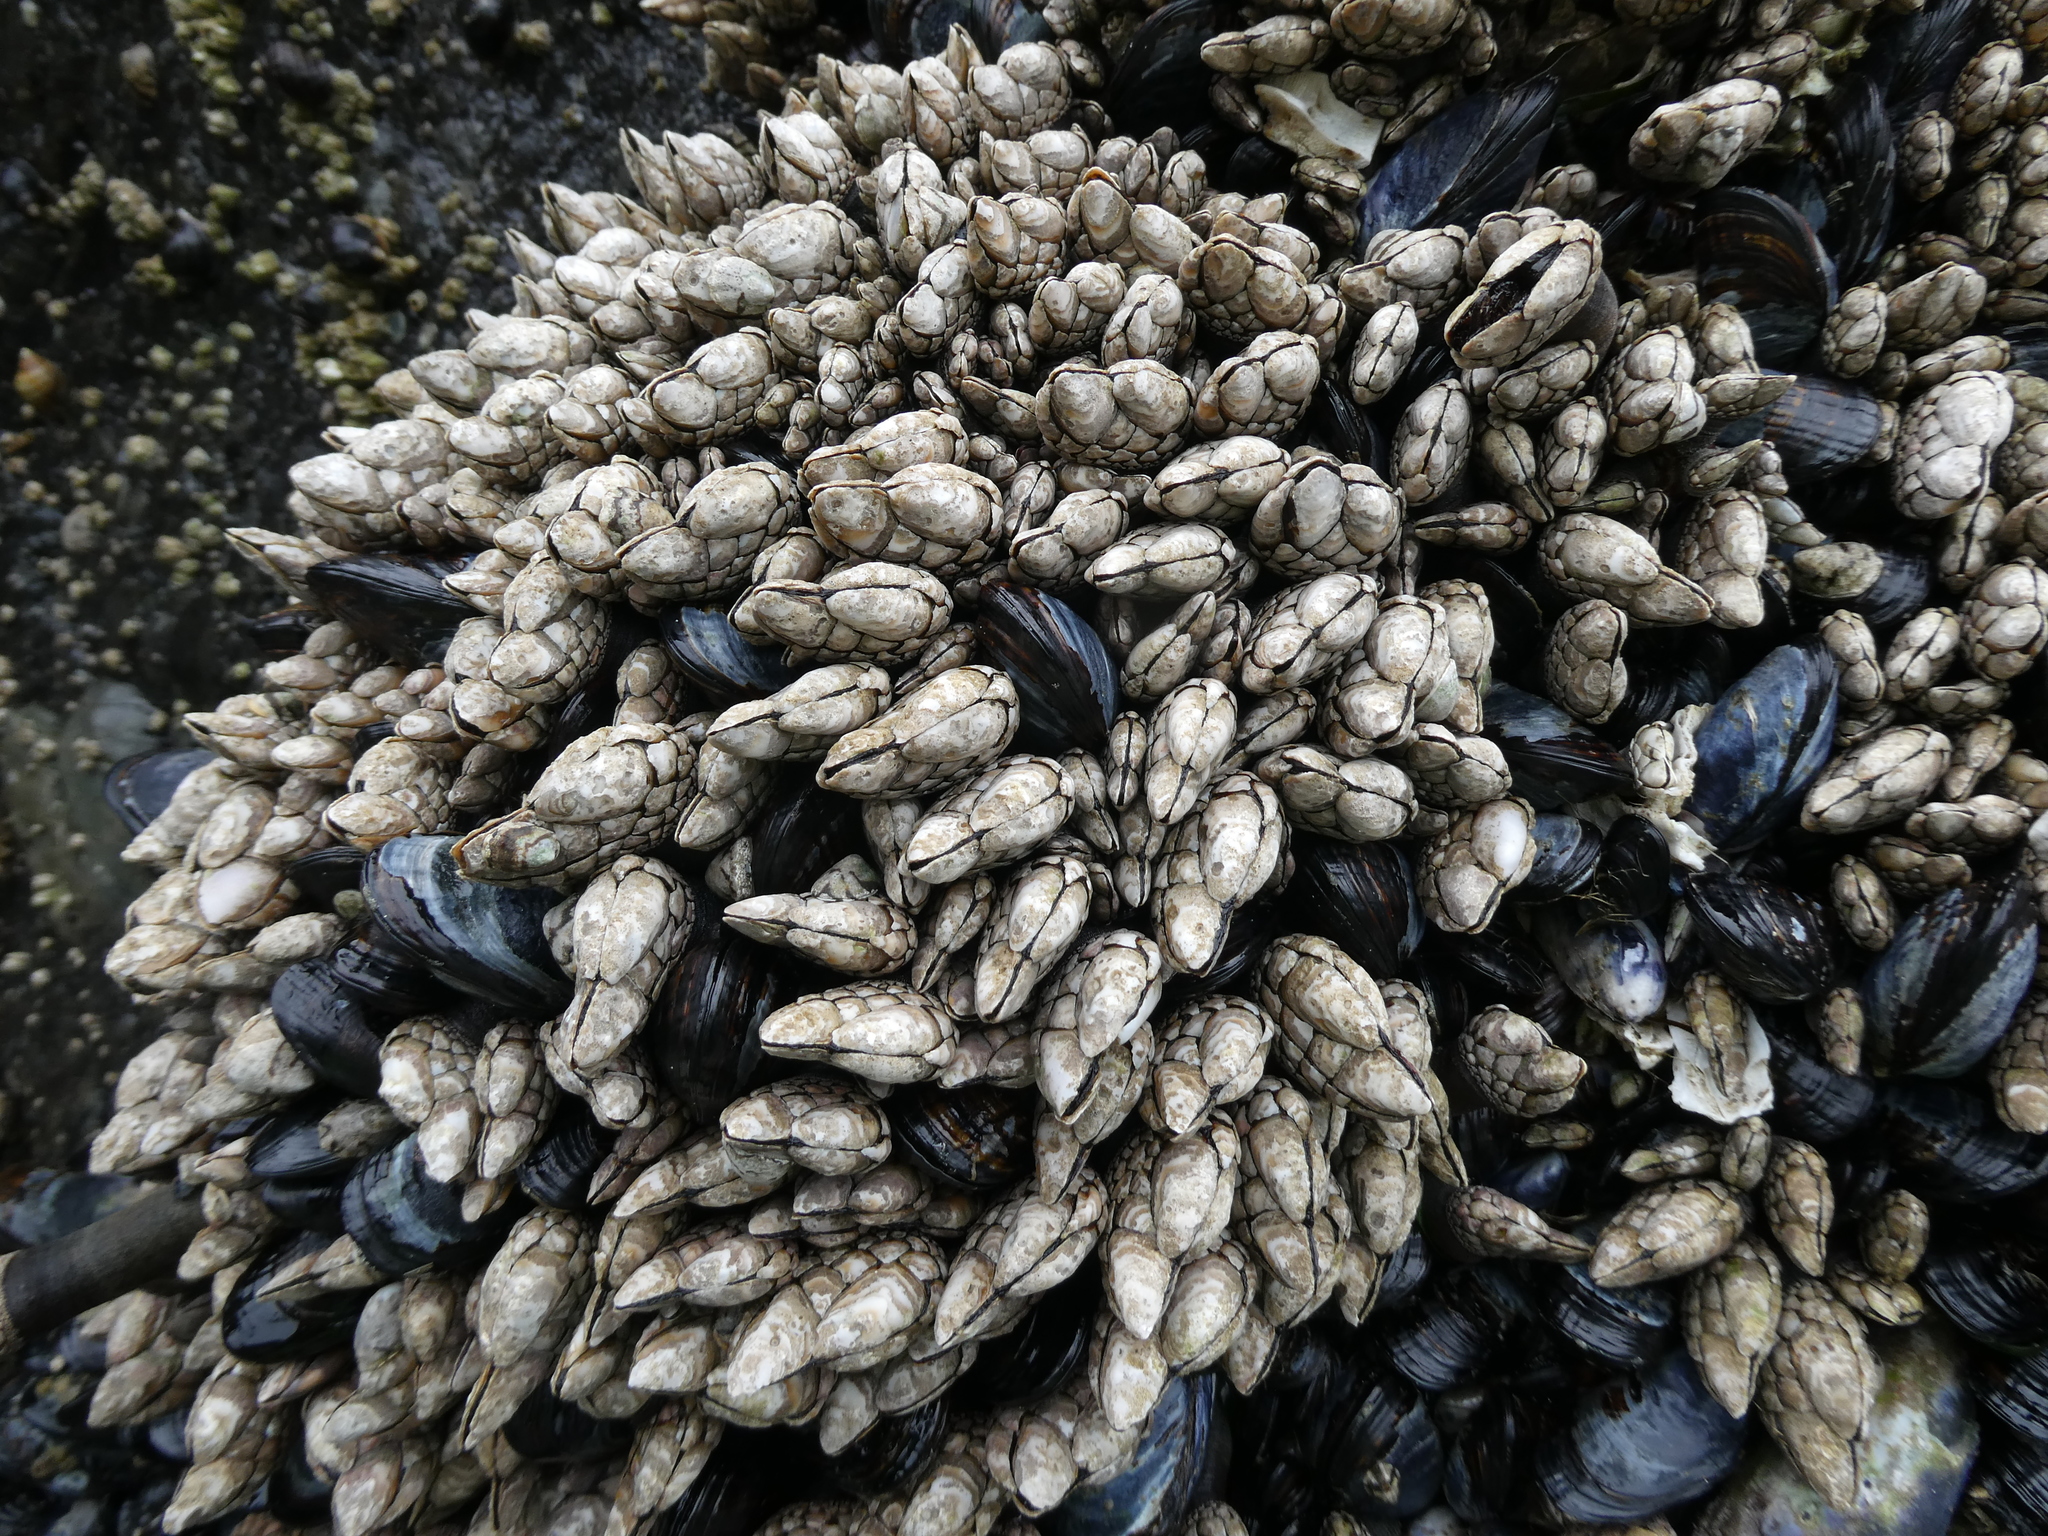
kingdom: Animalia
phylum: Arthropoda
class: Maxillopoda
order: Pedunculata
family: Pollicipedidae
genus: Pollicipes
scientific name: Pollicipes polymerus
